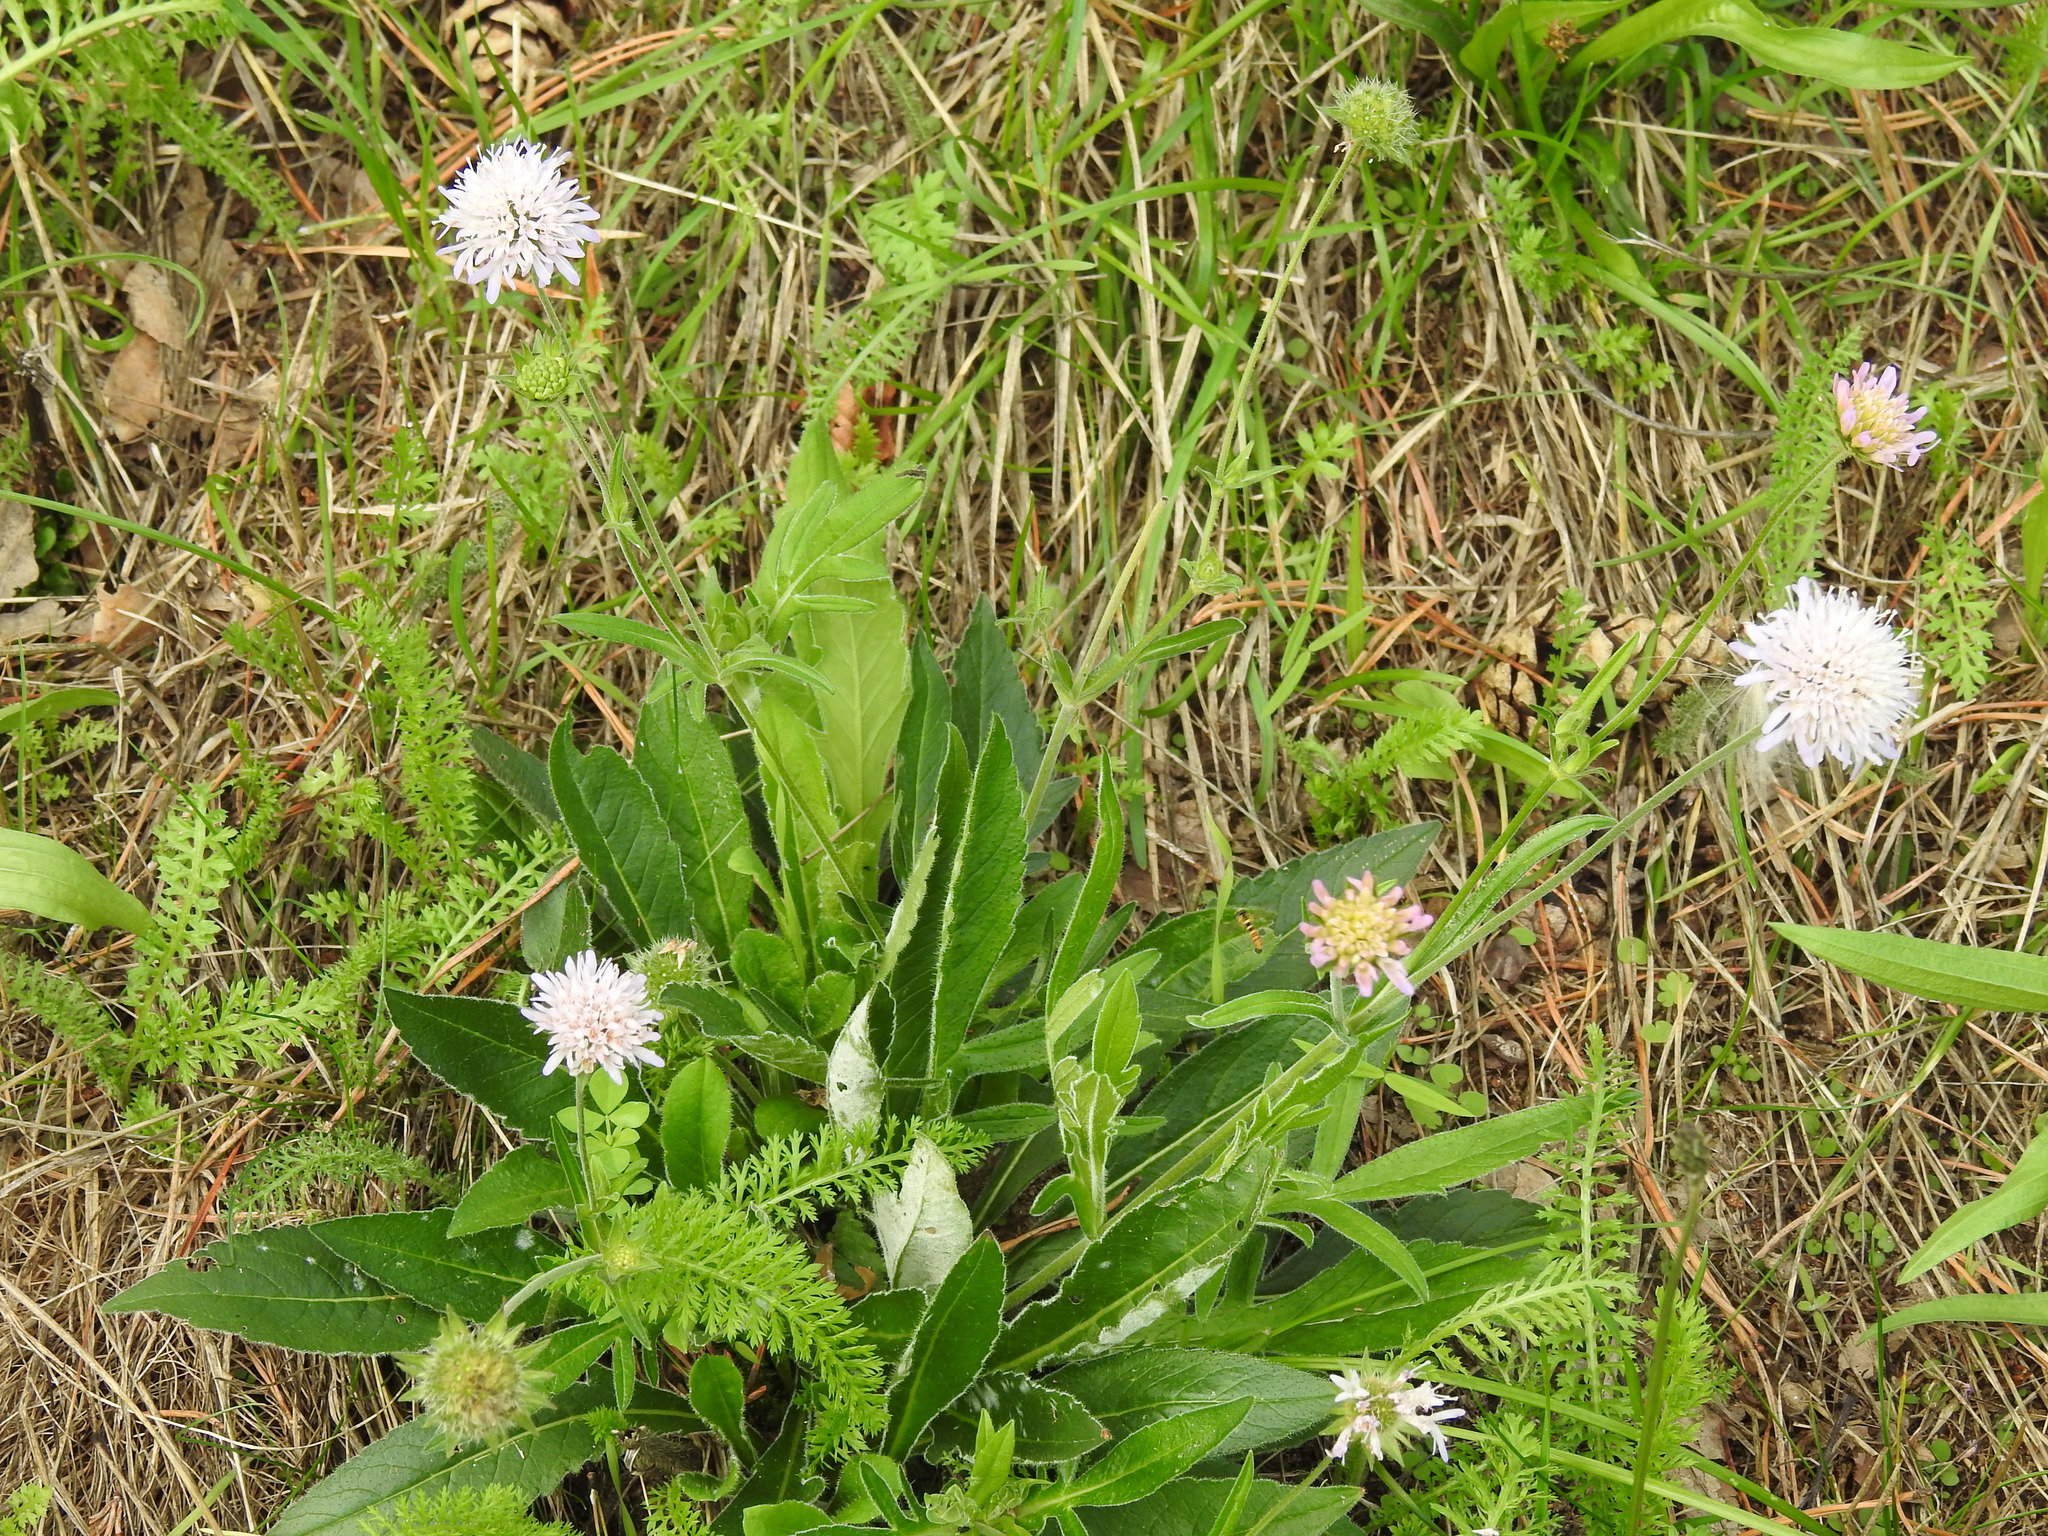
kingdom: Plantae
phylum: Tracheophyta
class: Magnoliopsida
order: Dipsacales
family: Caprifoliaceae
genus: Knautia
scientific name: Knautia arvensis
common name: Field scabiosa
